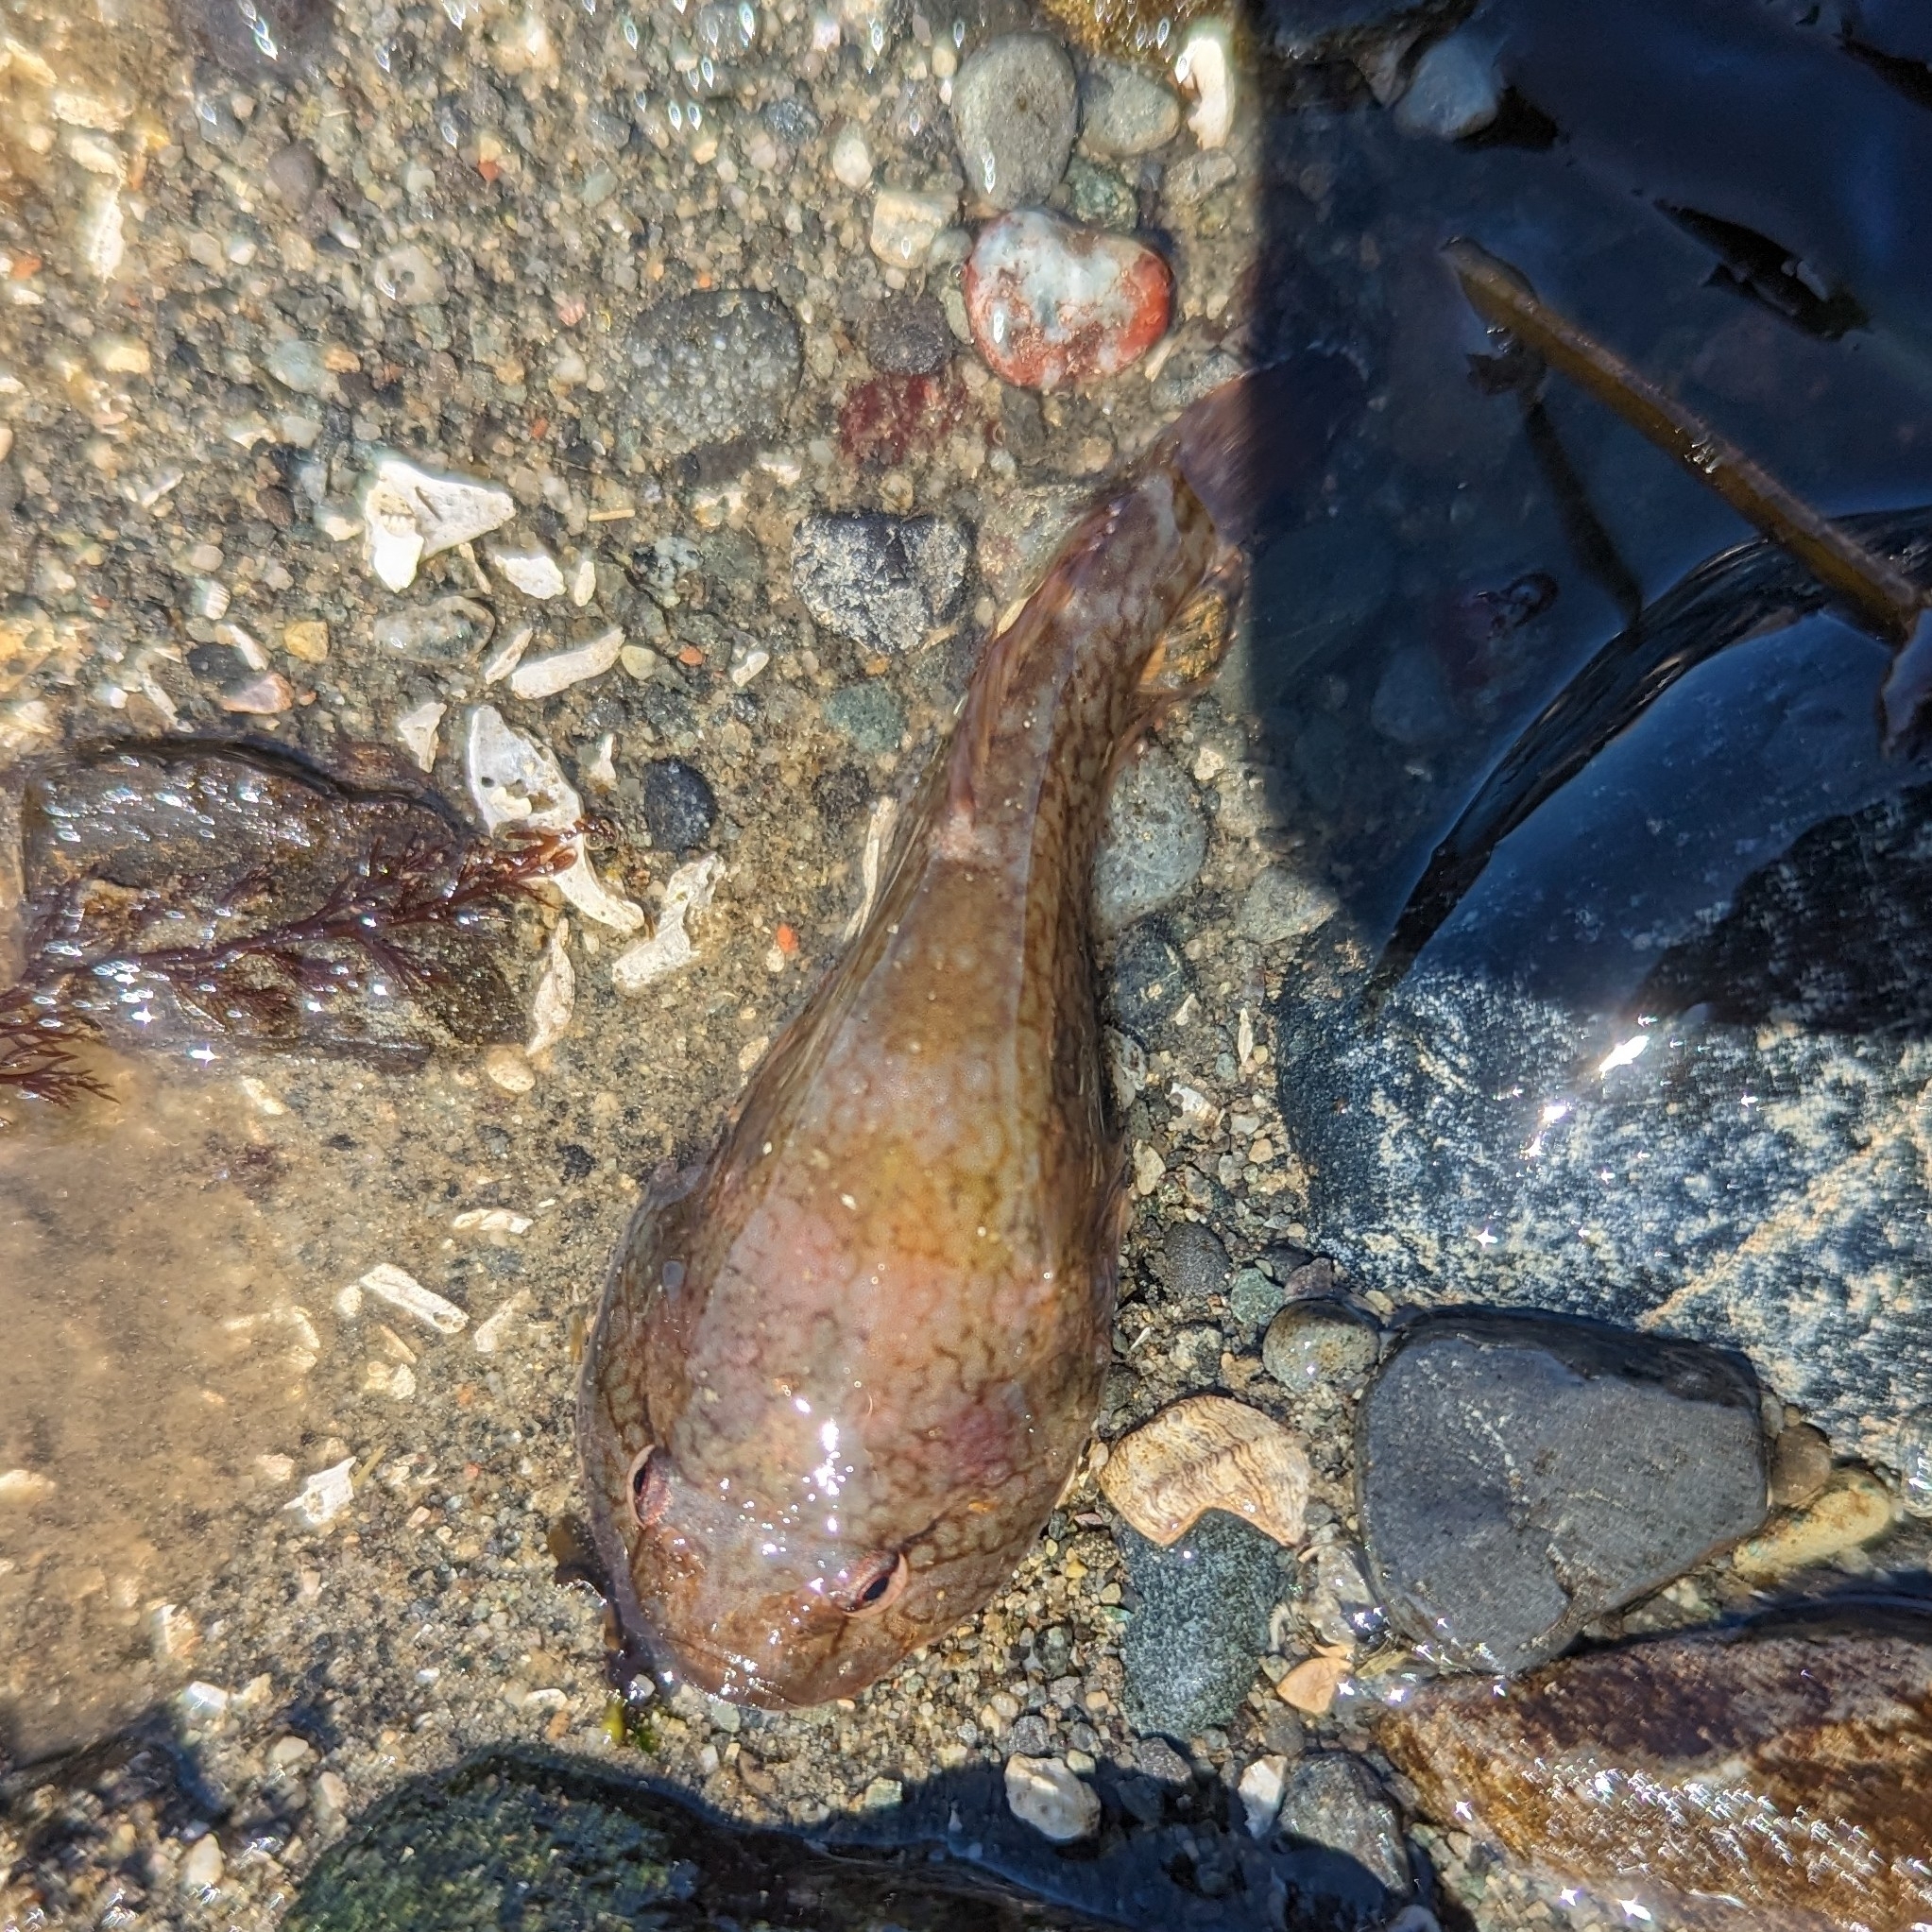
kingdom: Animalia
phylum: Chordata
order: Gobiesociformes
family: Gobiesocidae
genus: Gobiesox
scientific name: Gobiesox maeandricus
